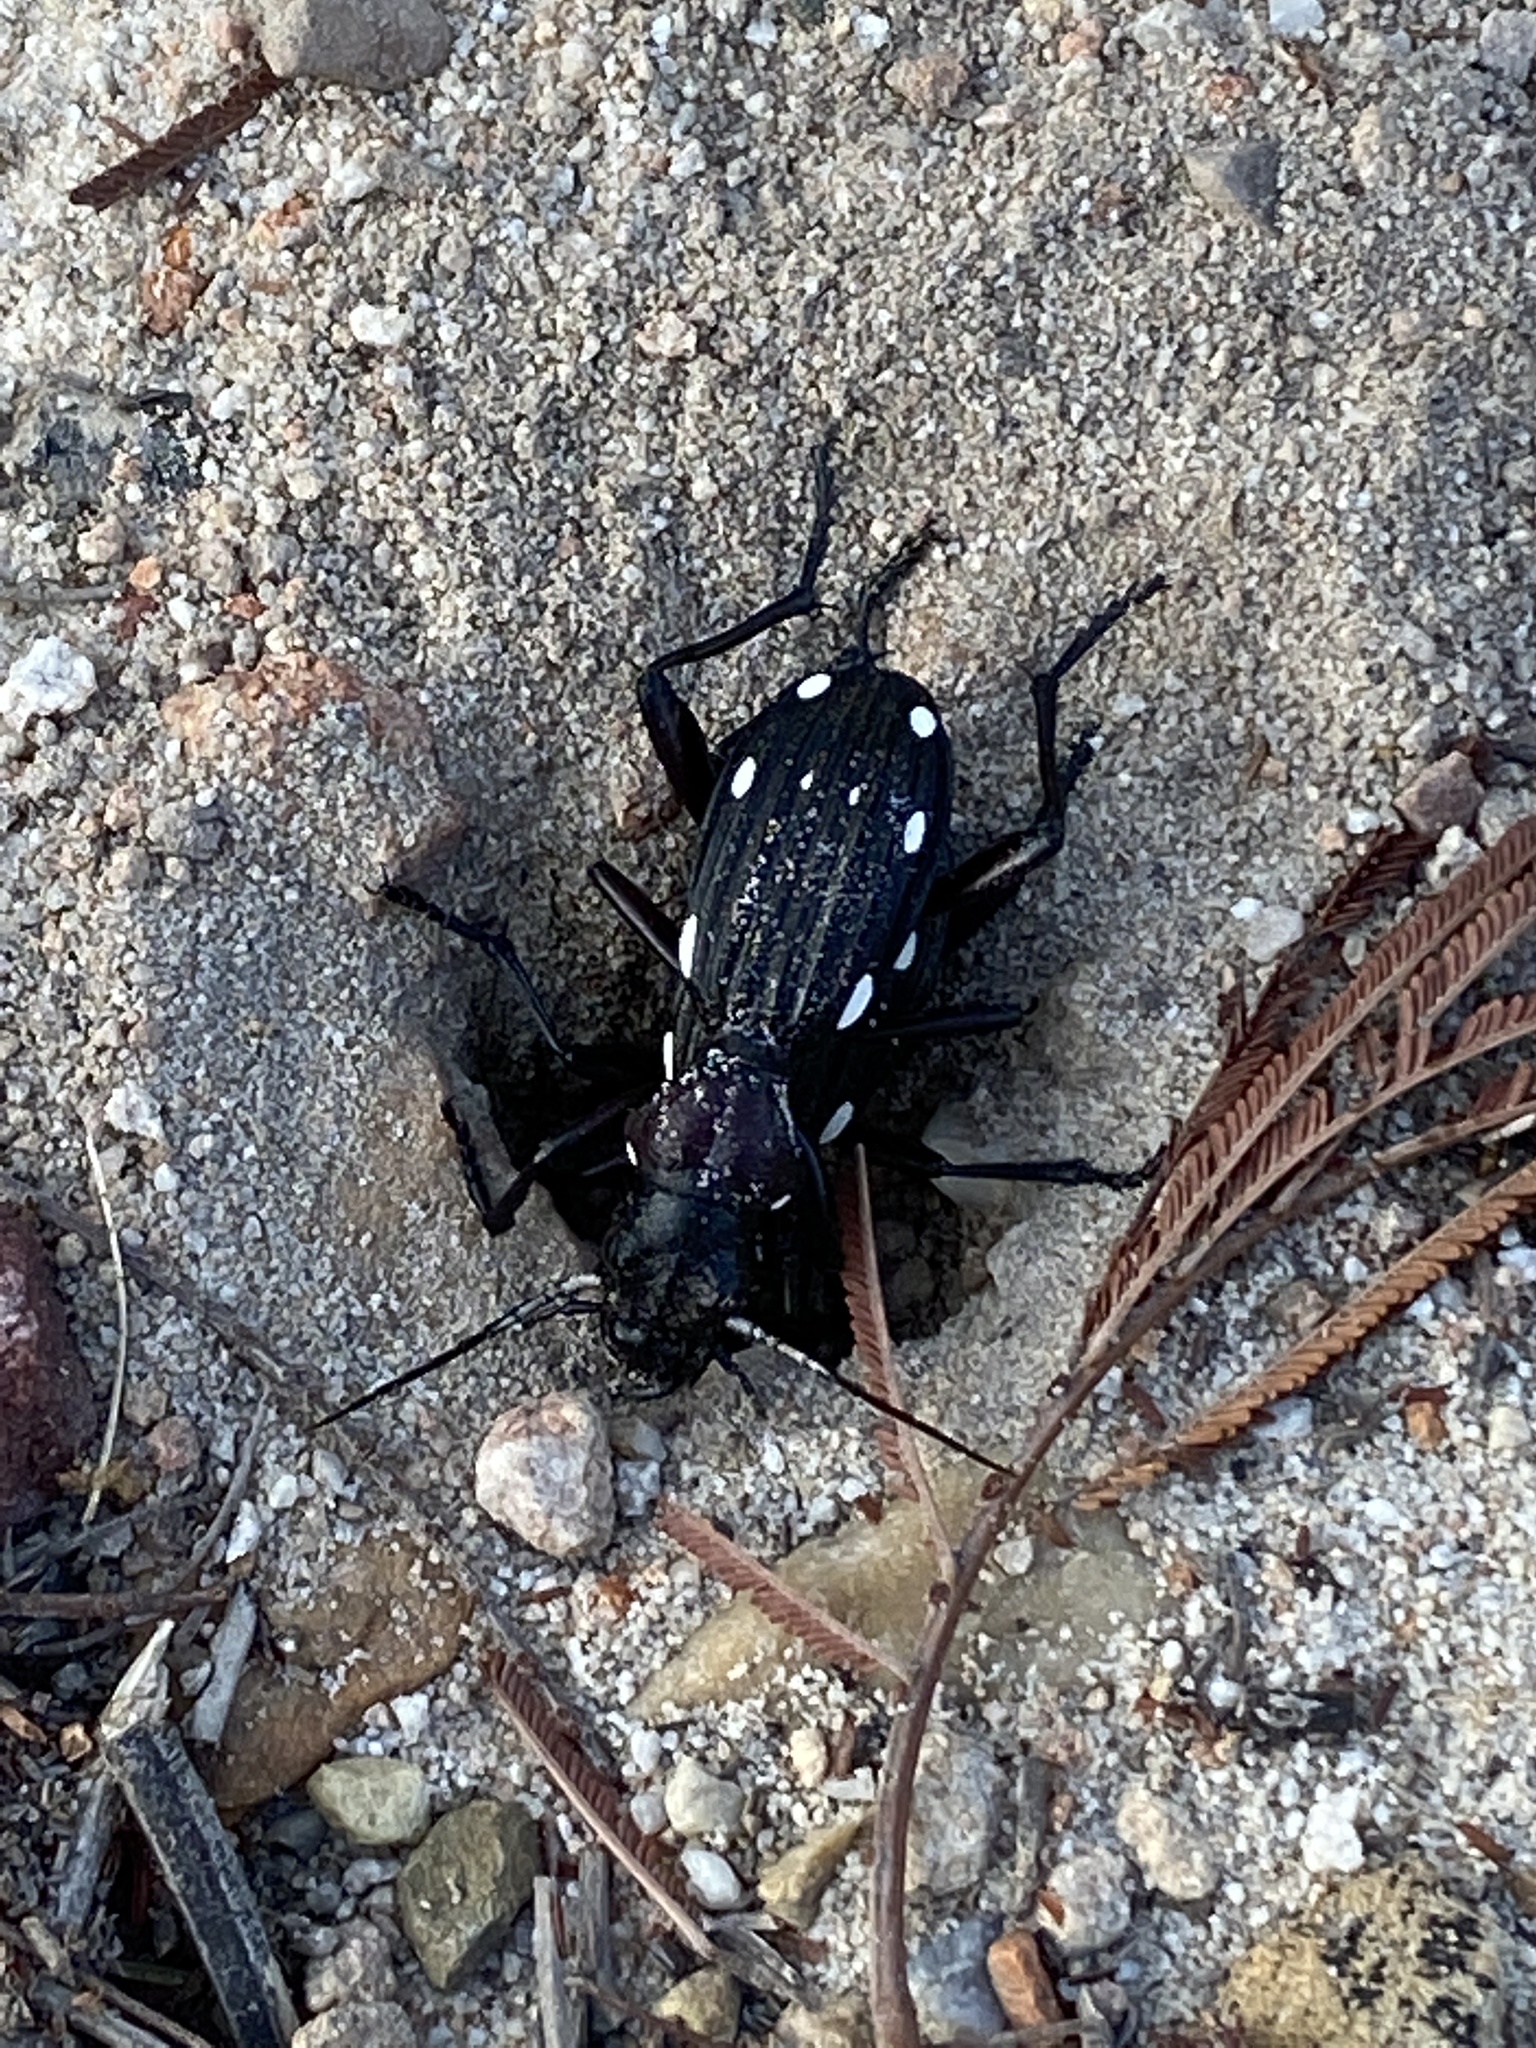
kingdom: Animalia
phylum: Arthropoda
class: Insecta
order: Coleoptera
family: Carabidae
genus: Anthia
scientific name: Anthia decemguttata
